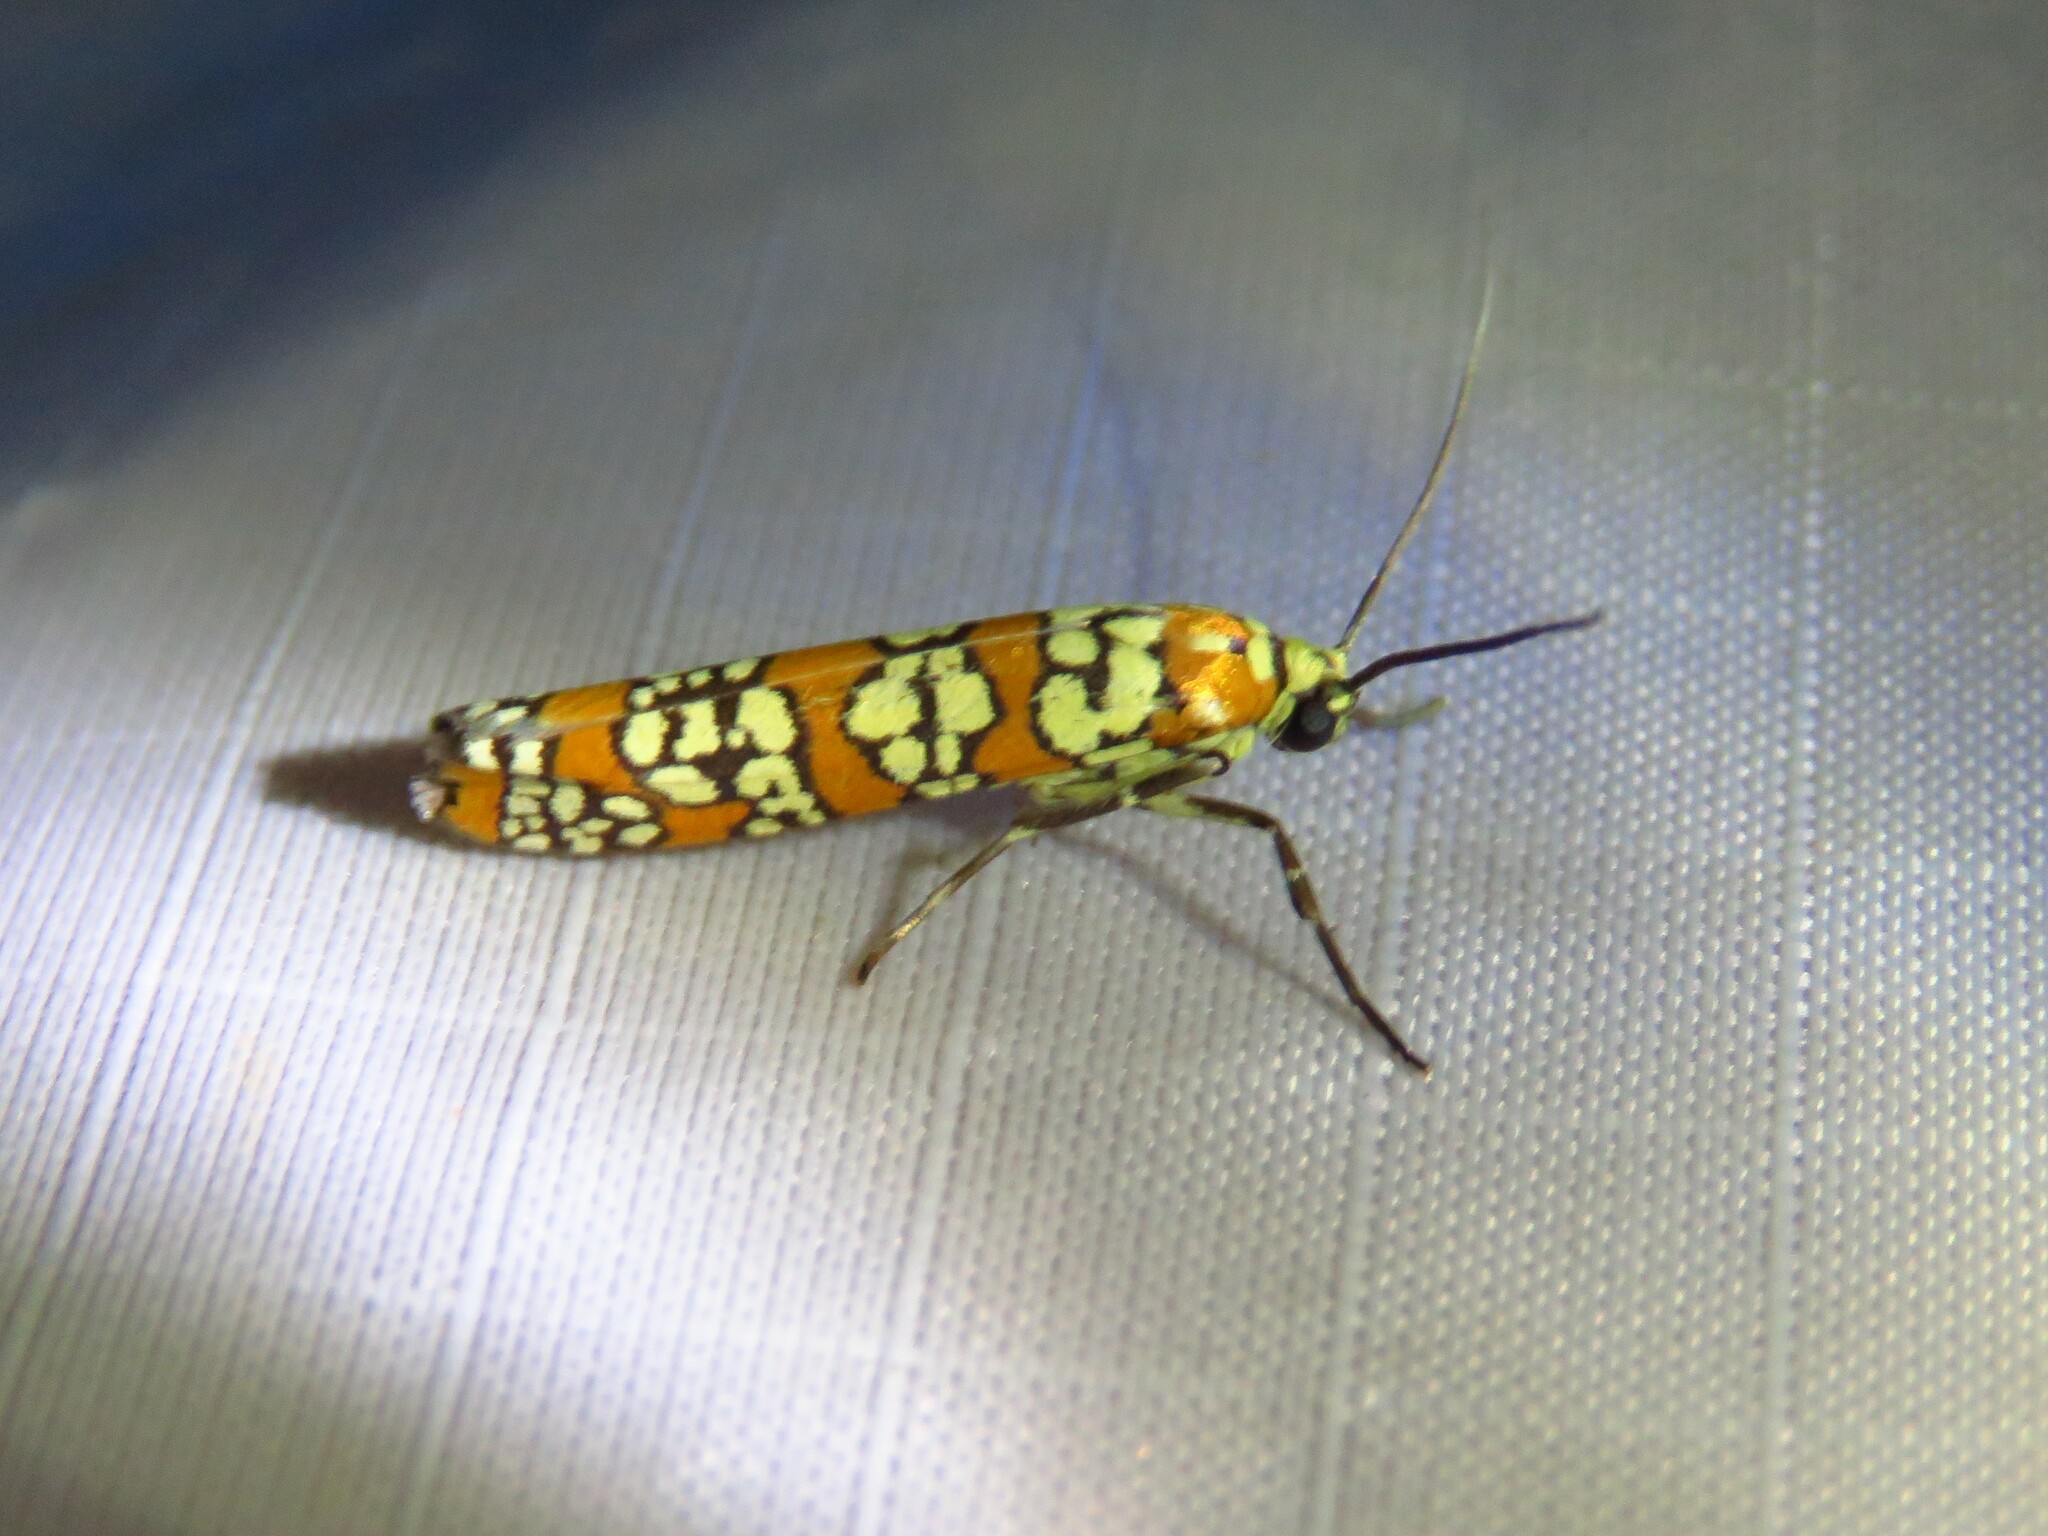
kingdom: Animalia
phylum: Arthropoda
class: Insecta
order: Lepidoptera
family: Attevidae
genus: Atteva
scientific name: Atteva punctella
